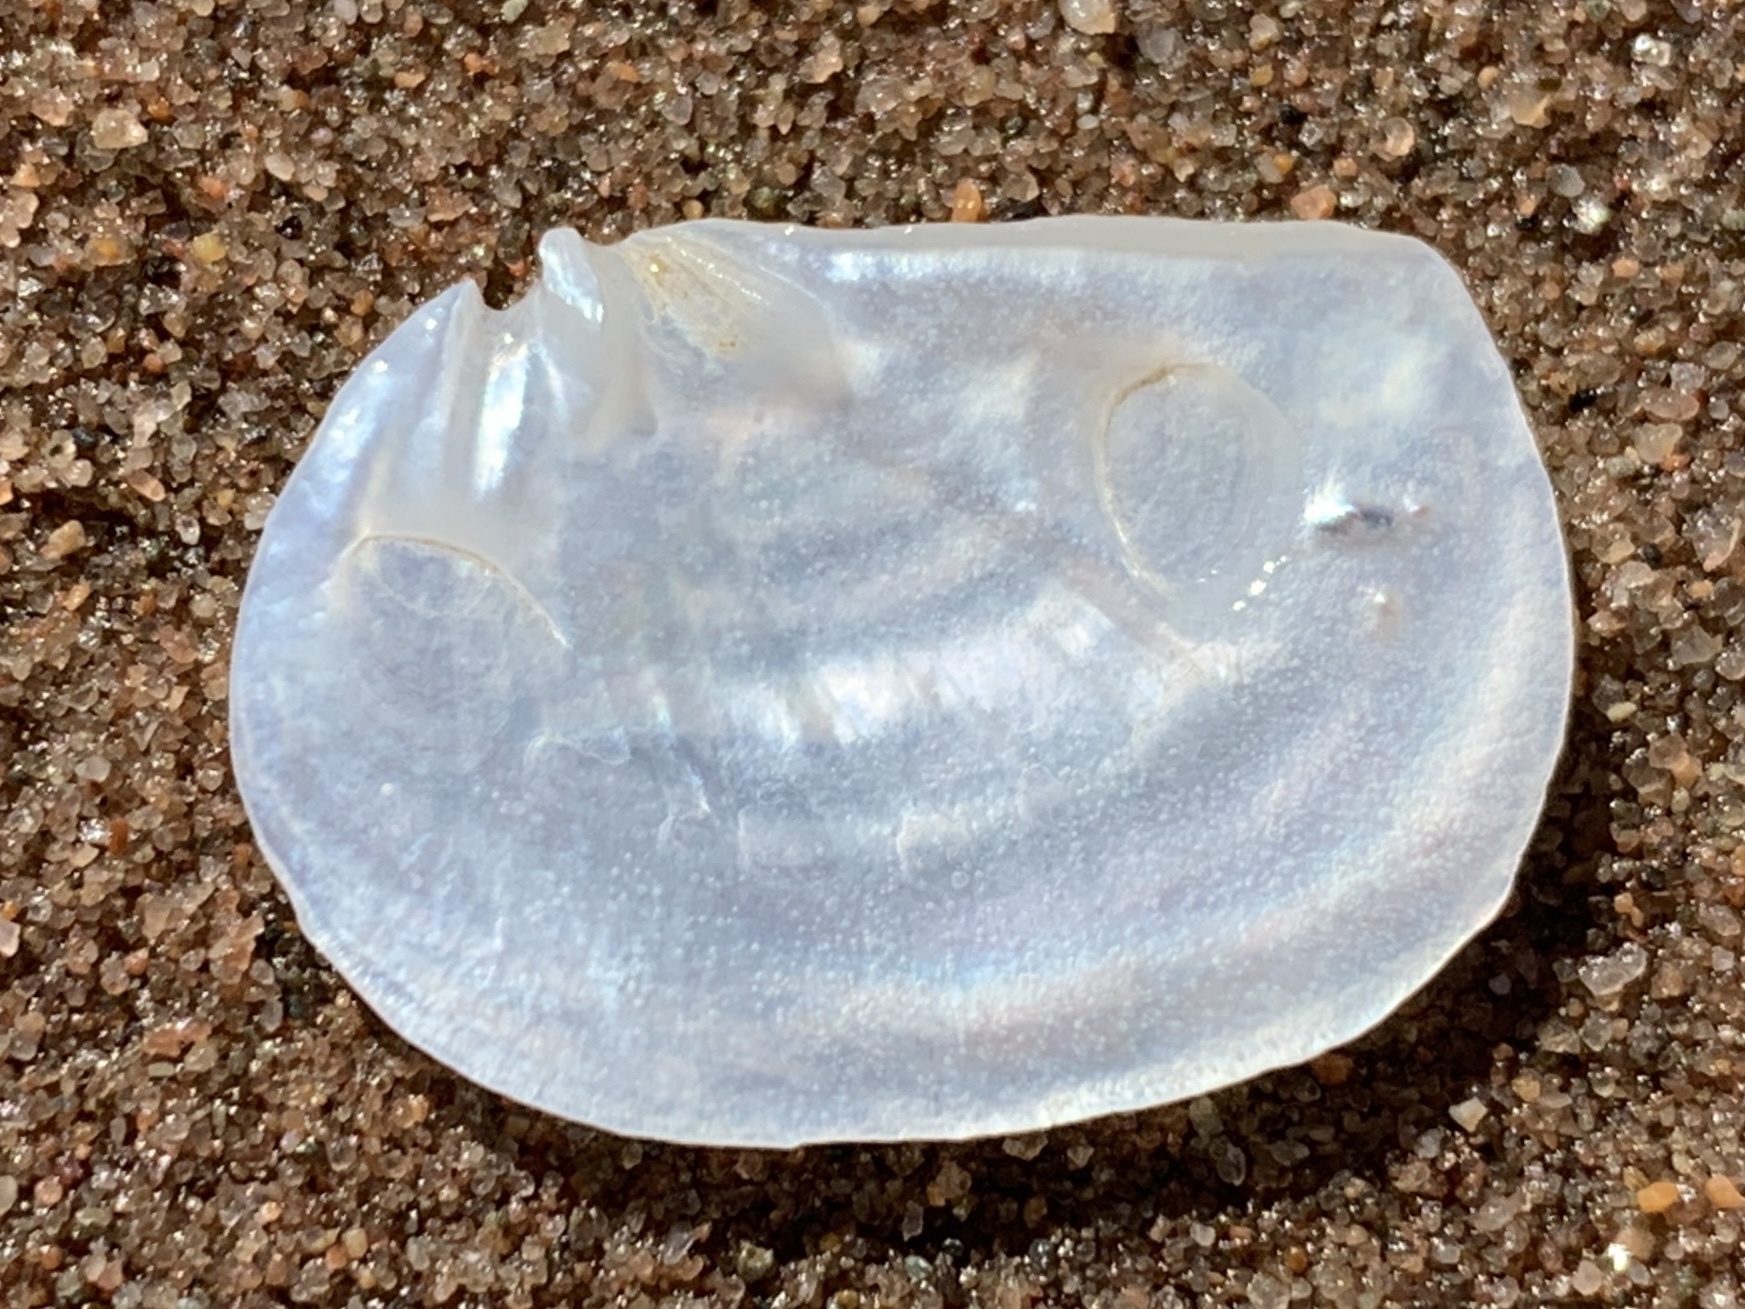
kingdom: Animalia
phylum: Mollusca
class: Bivalvia
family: Pandoridae
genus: Pandora
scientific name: Pandora gouldiana
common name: Rounded pandora
